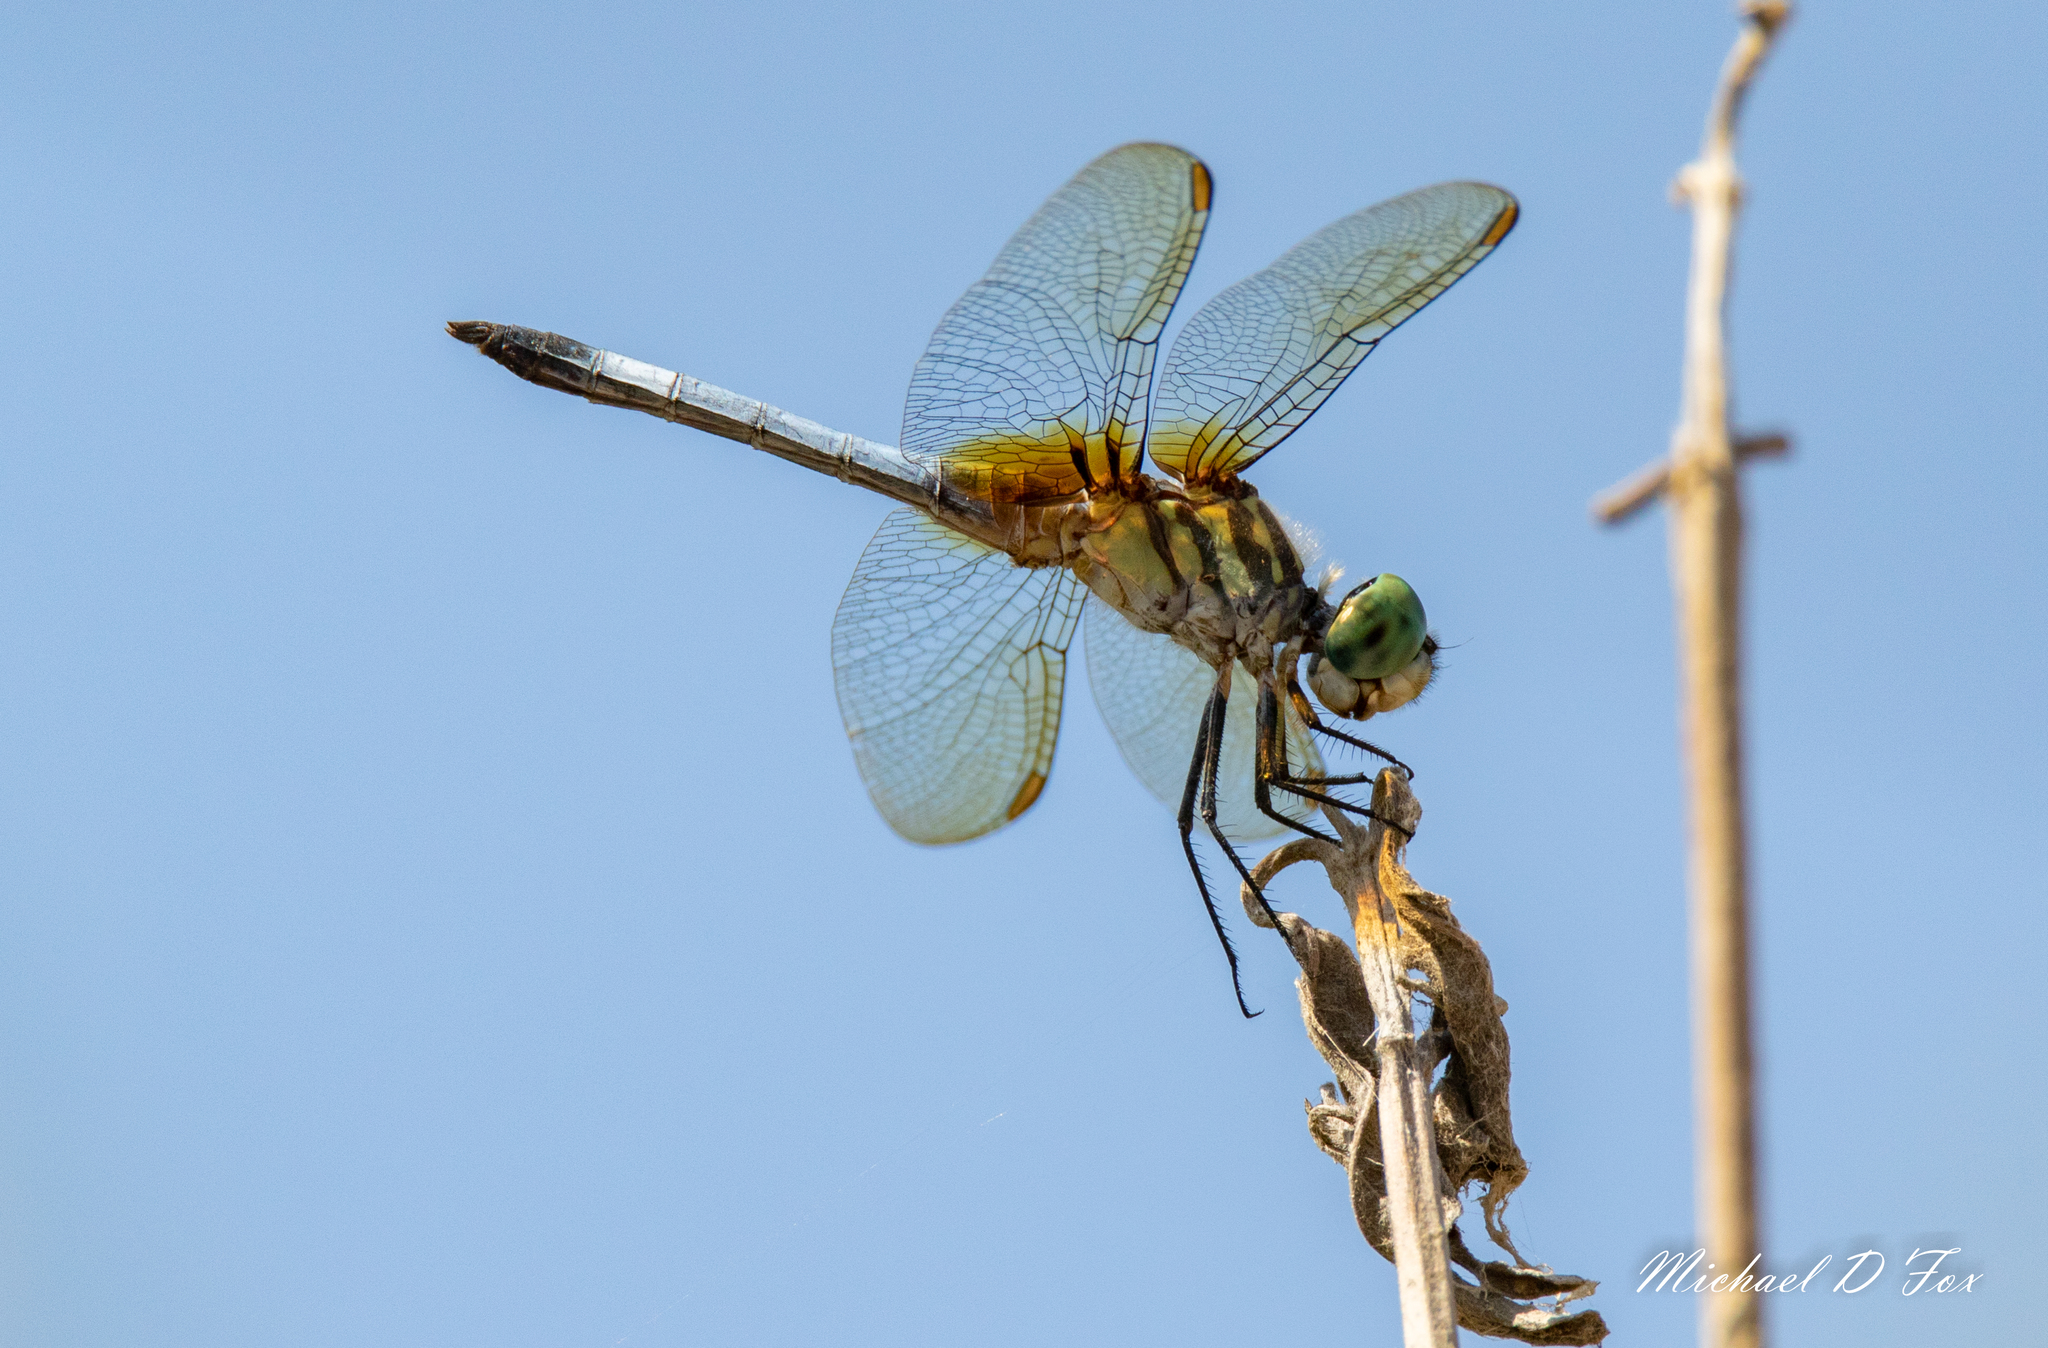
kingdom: Animalia
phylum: Arthropoda
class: Insecta
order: Odonata
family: Libellulidae
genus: Pachydiplax
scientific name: Pachydiplax longipennis
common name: Blue dasher
